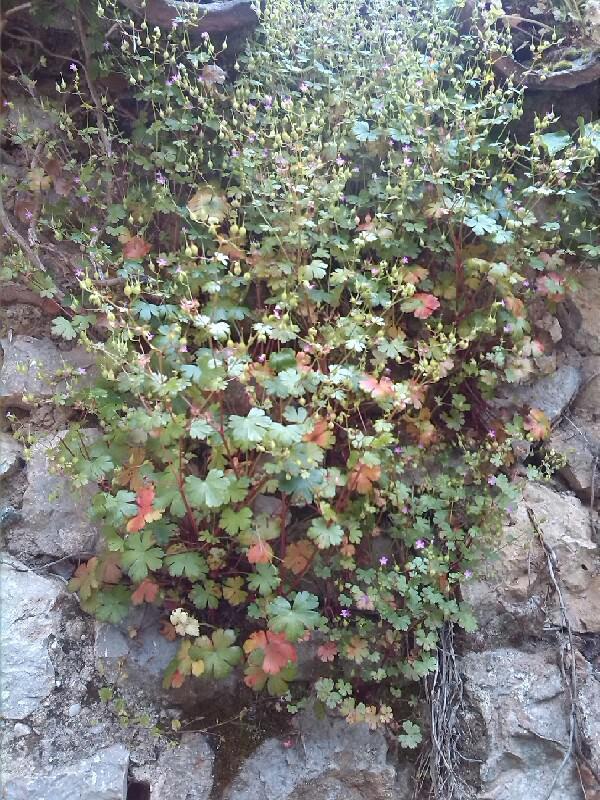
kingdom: Plantae
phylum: Tracheophyta
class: Magnoliopsida
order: Geraniales
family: Geraniaceae
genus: Geranium
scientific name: Geranium lucidum
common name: Shining crane's-bill
